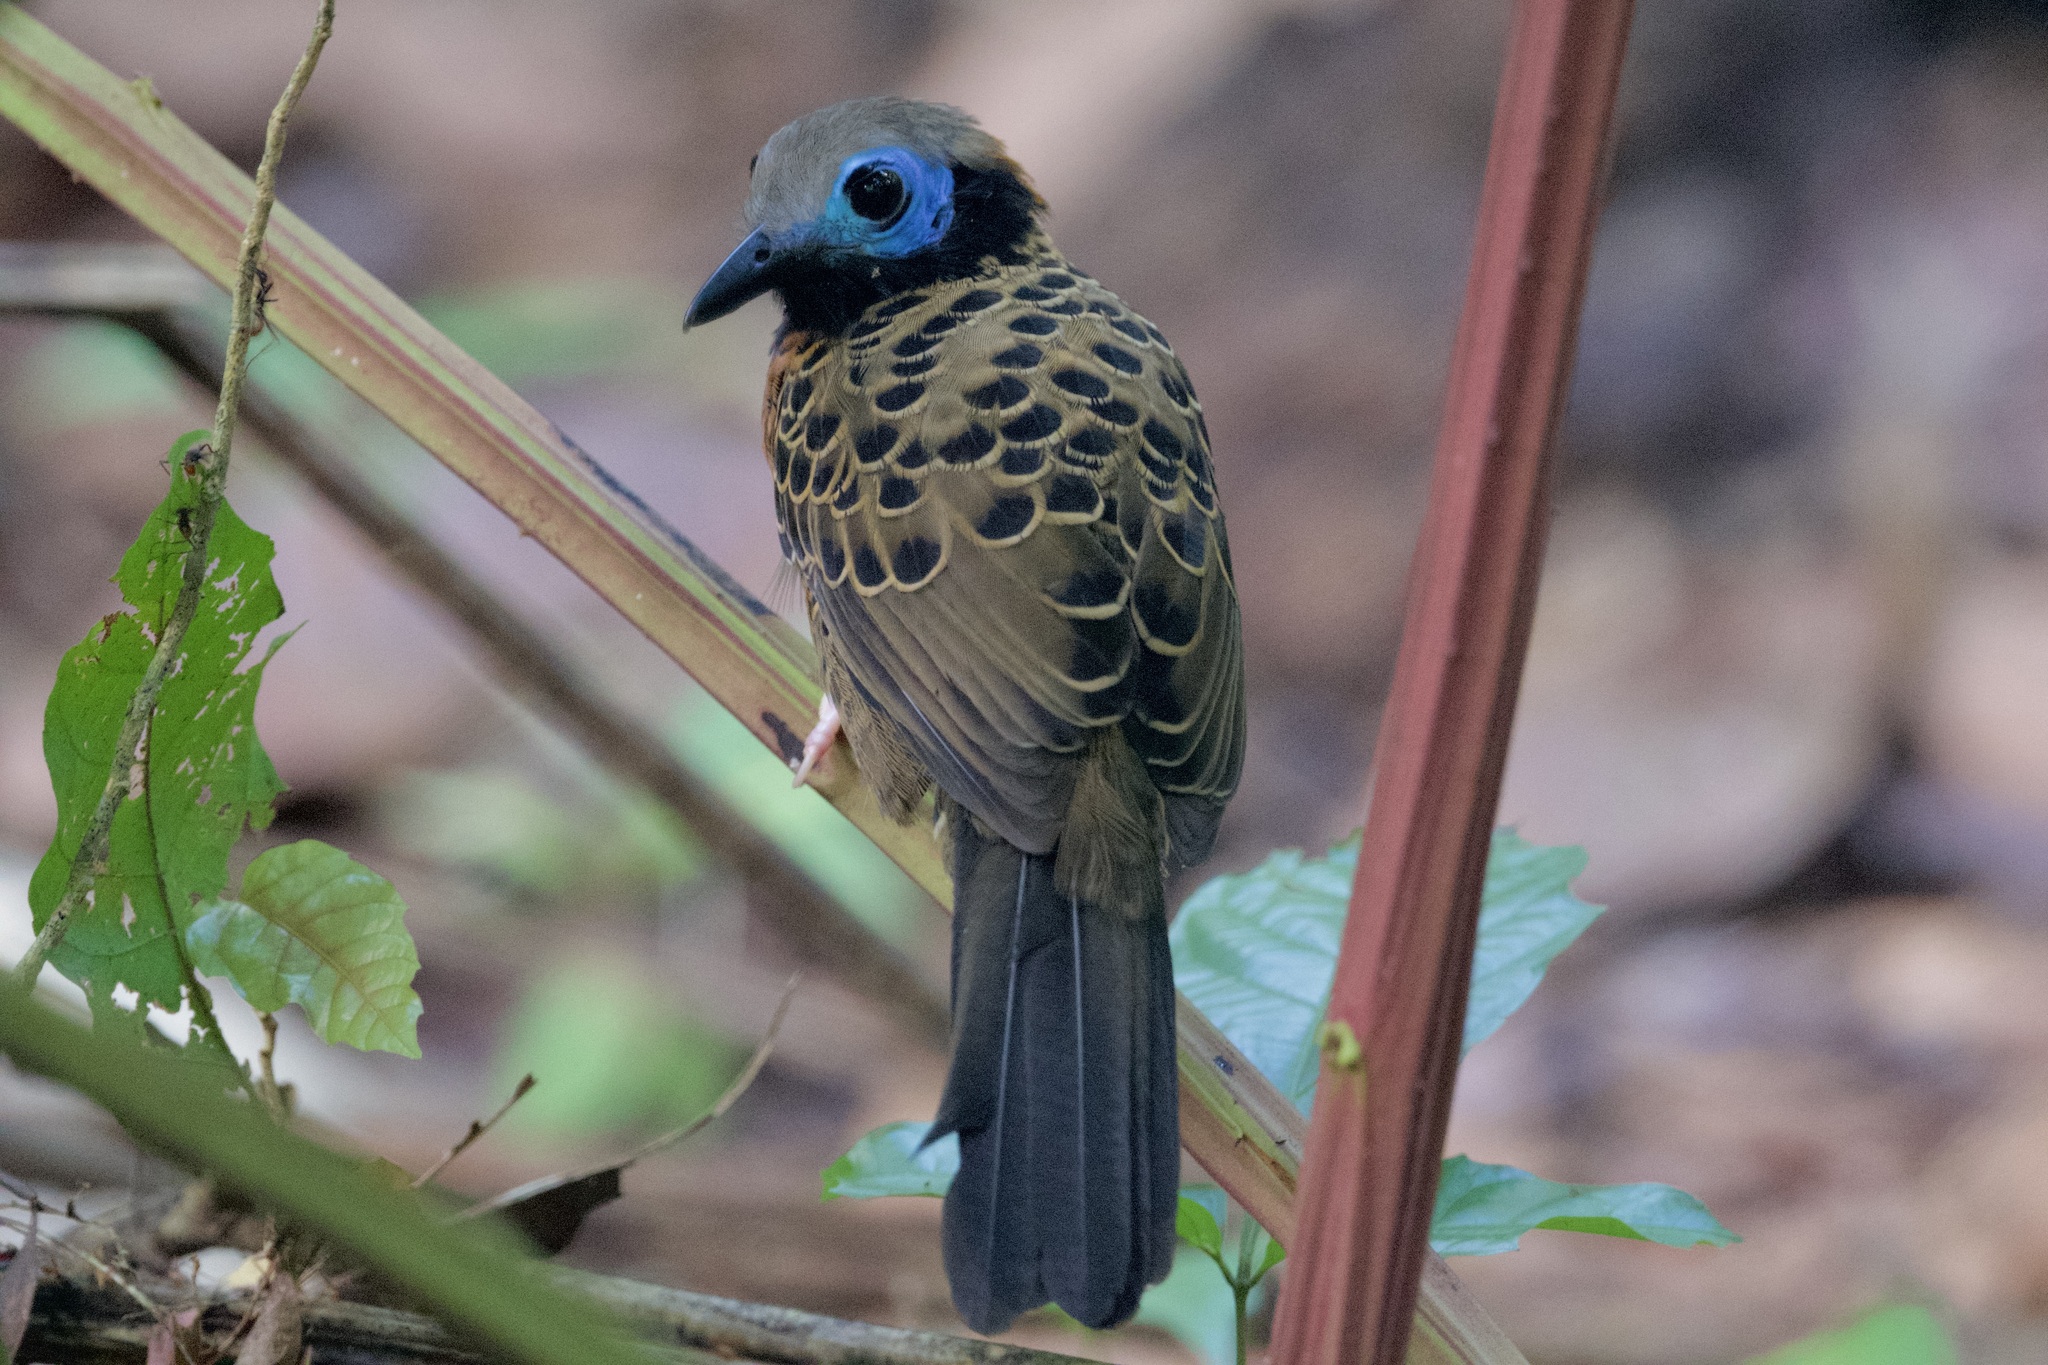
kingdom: Animalia
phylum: Chordata
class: Aves
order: Passeriformes
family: Thamnophilidae
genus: Phaenostictus
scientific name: Phaenostictus mcleannani
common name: Ocellated antbird
